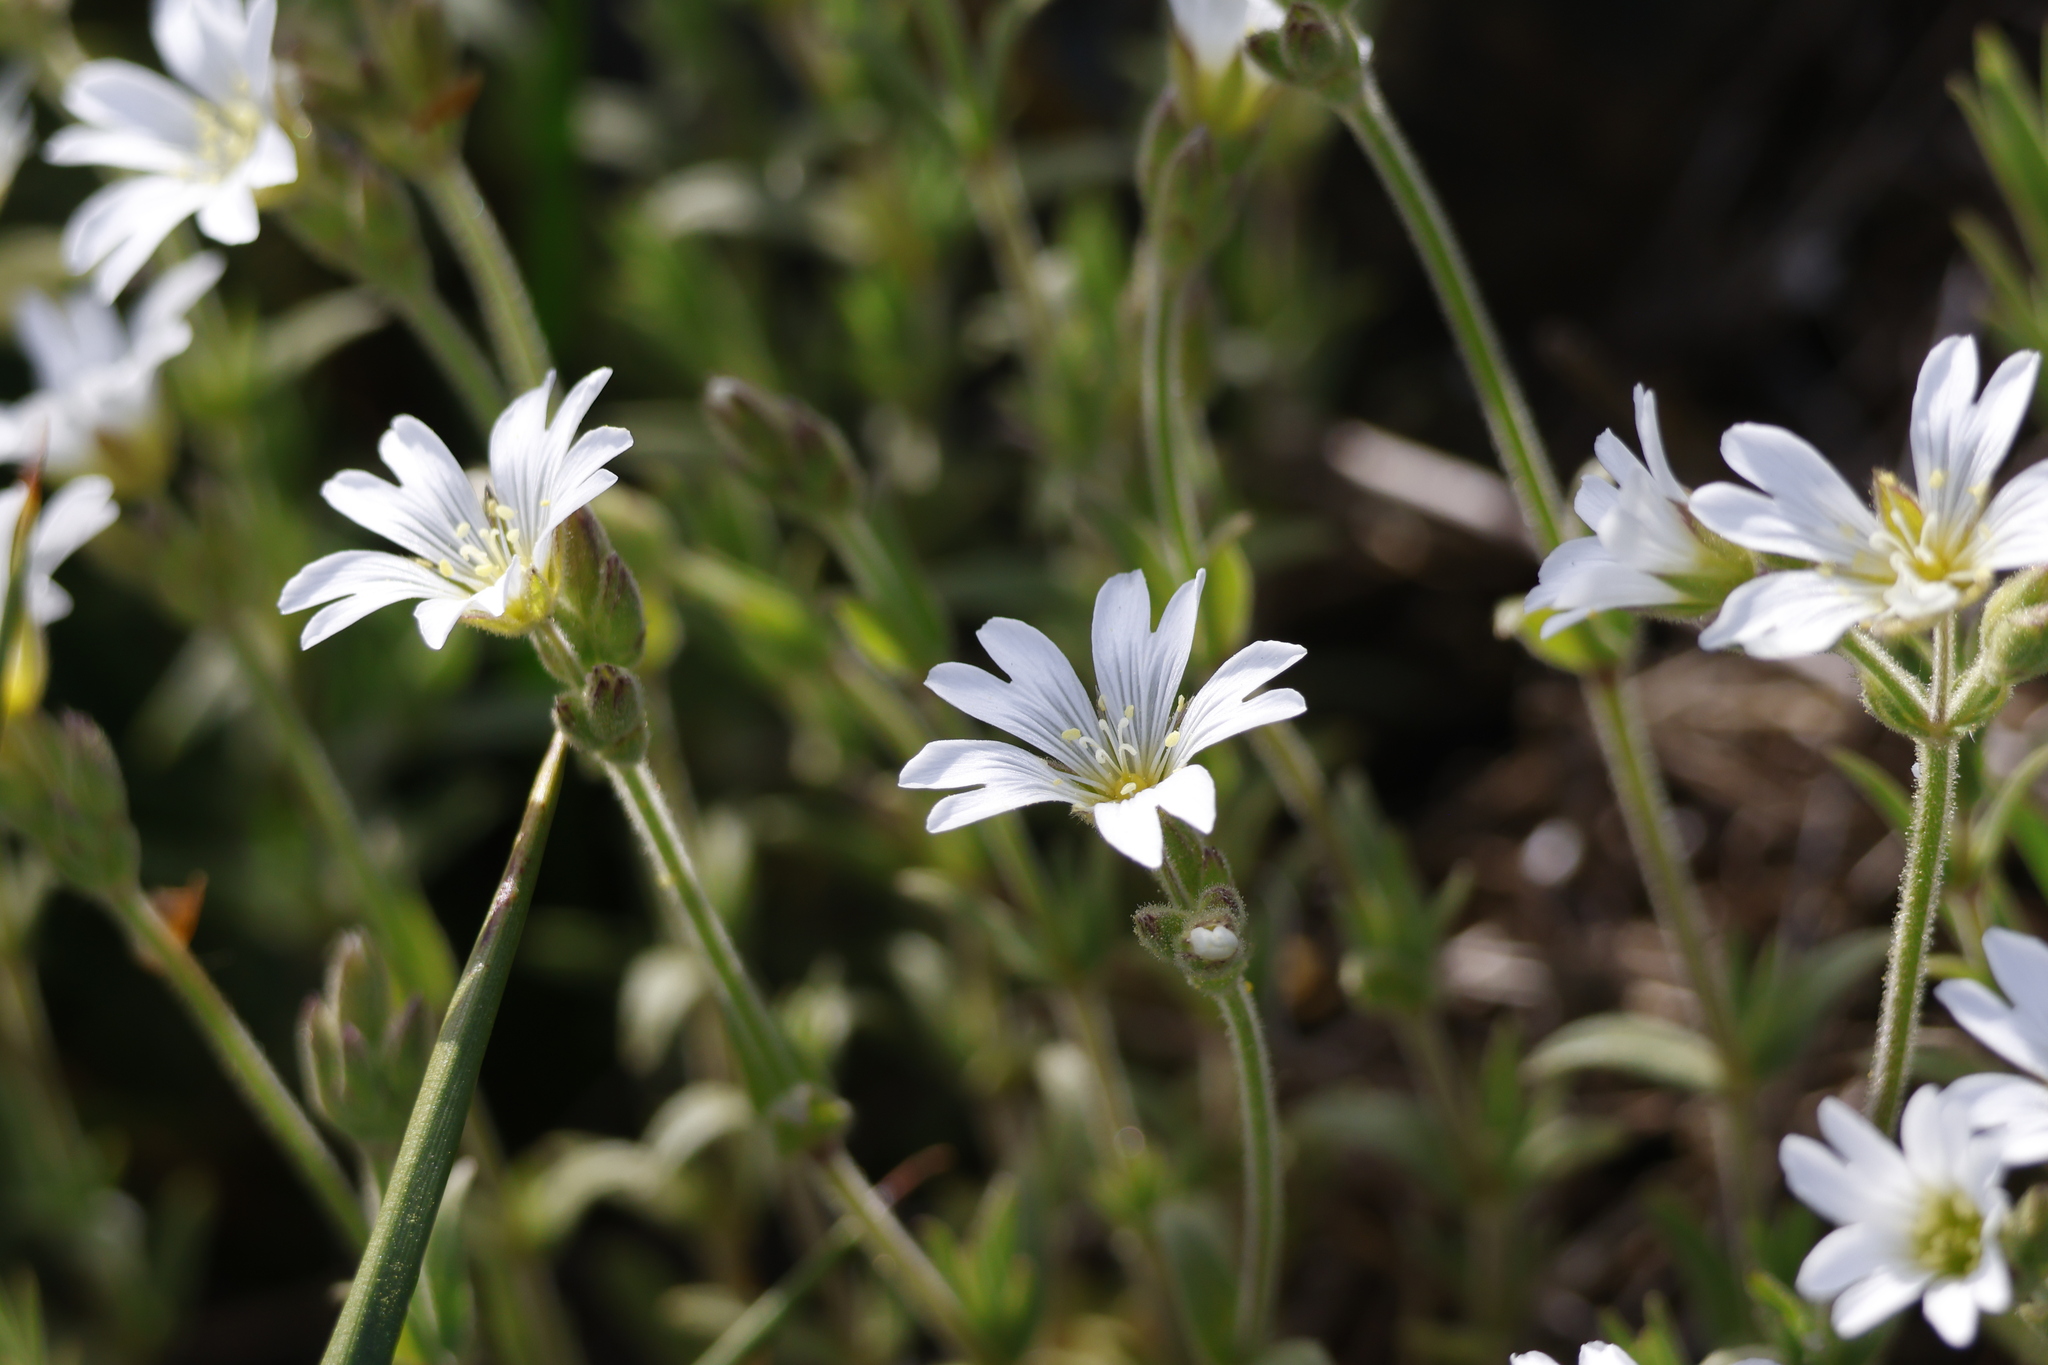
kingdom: Plantae
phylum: Tracheophyta
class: Magnoliopsida
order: Caryophyllales
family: Caryophyllaceae
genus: Cerastium
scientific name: Cerastium arvense
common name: Field mouse-ear
